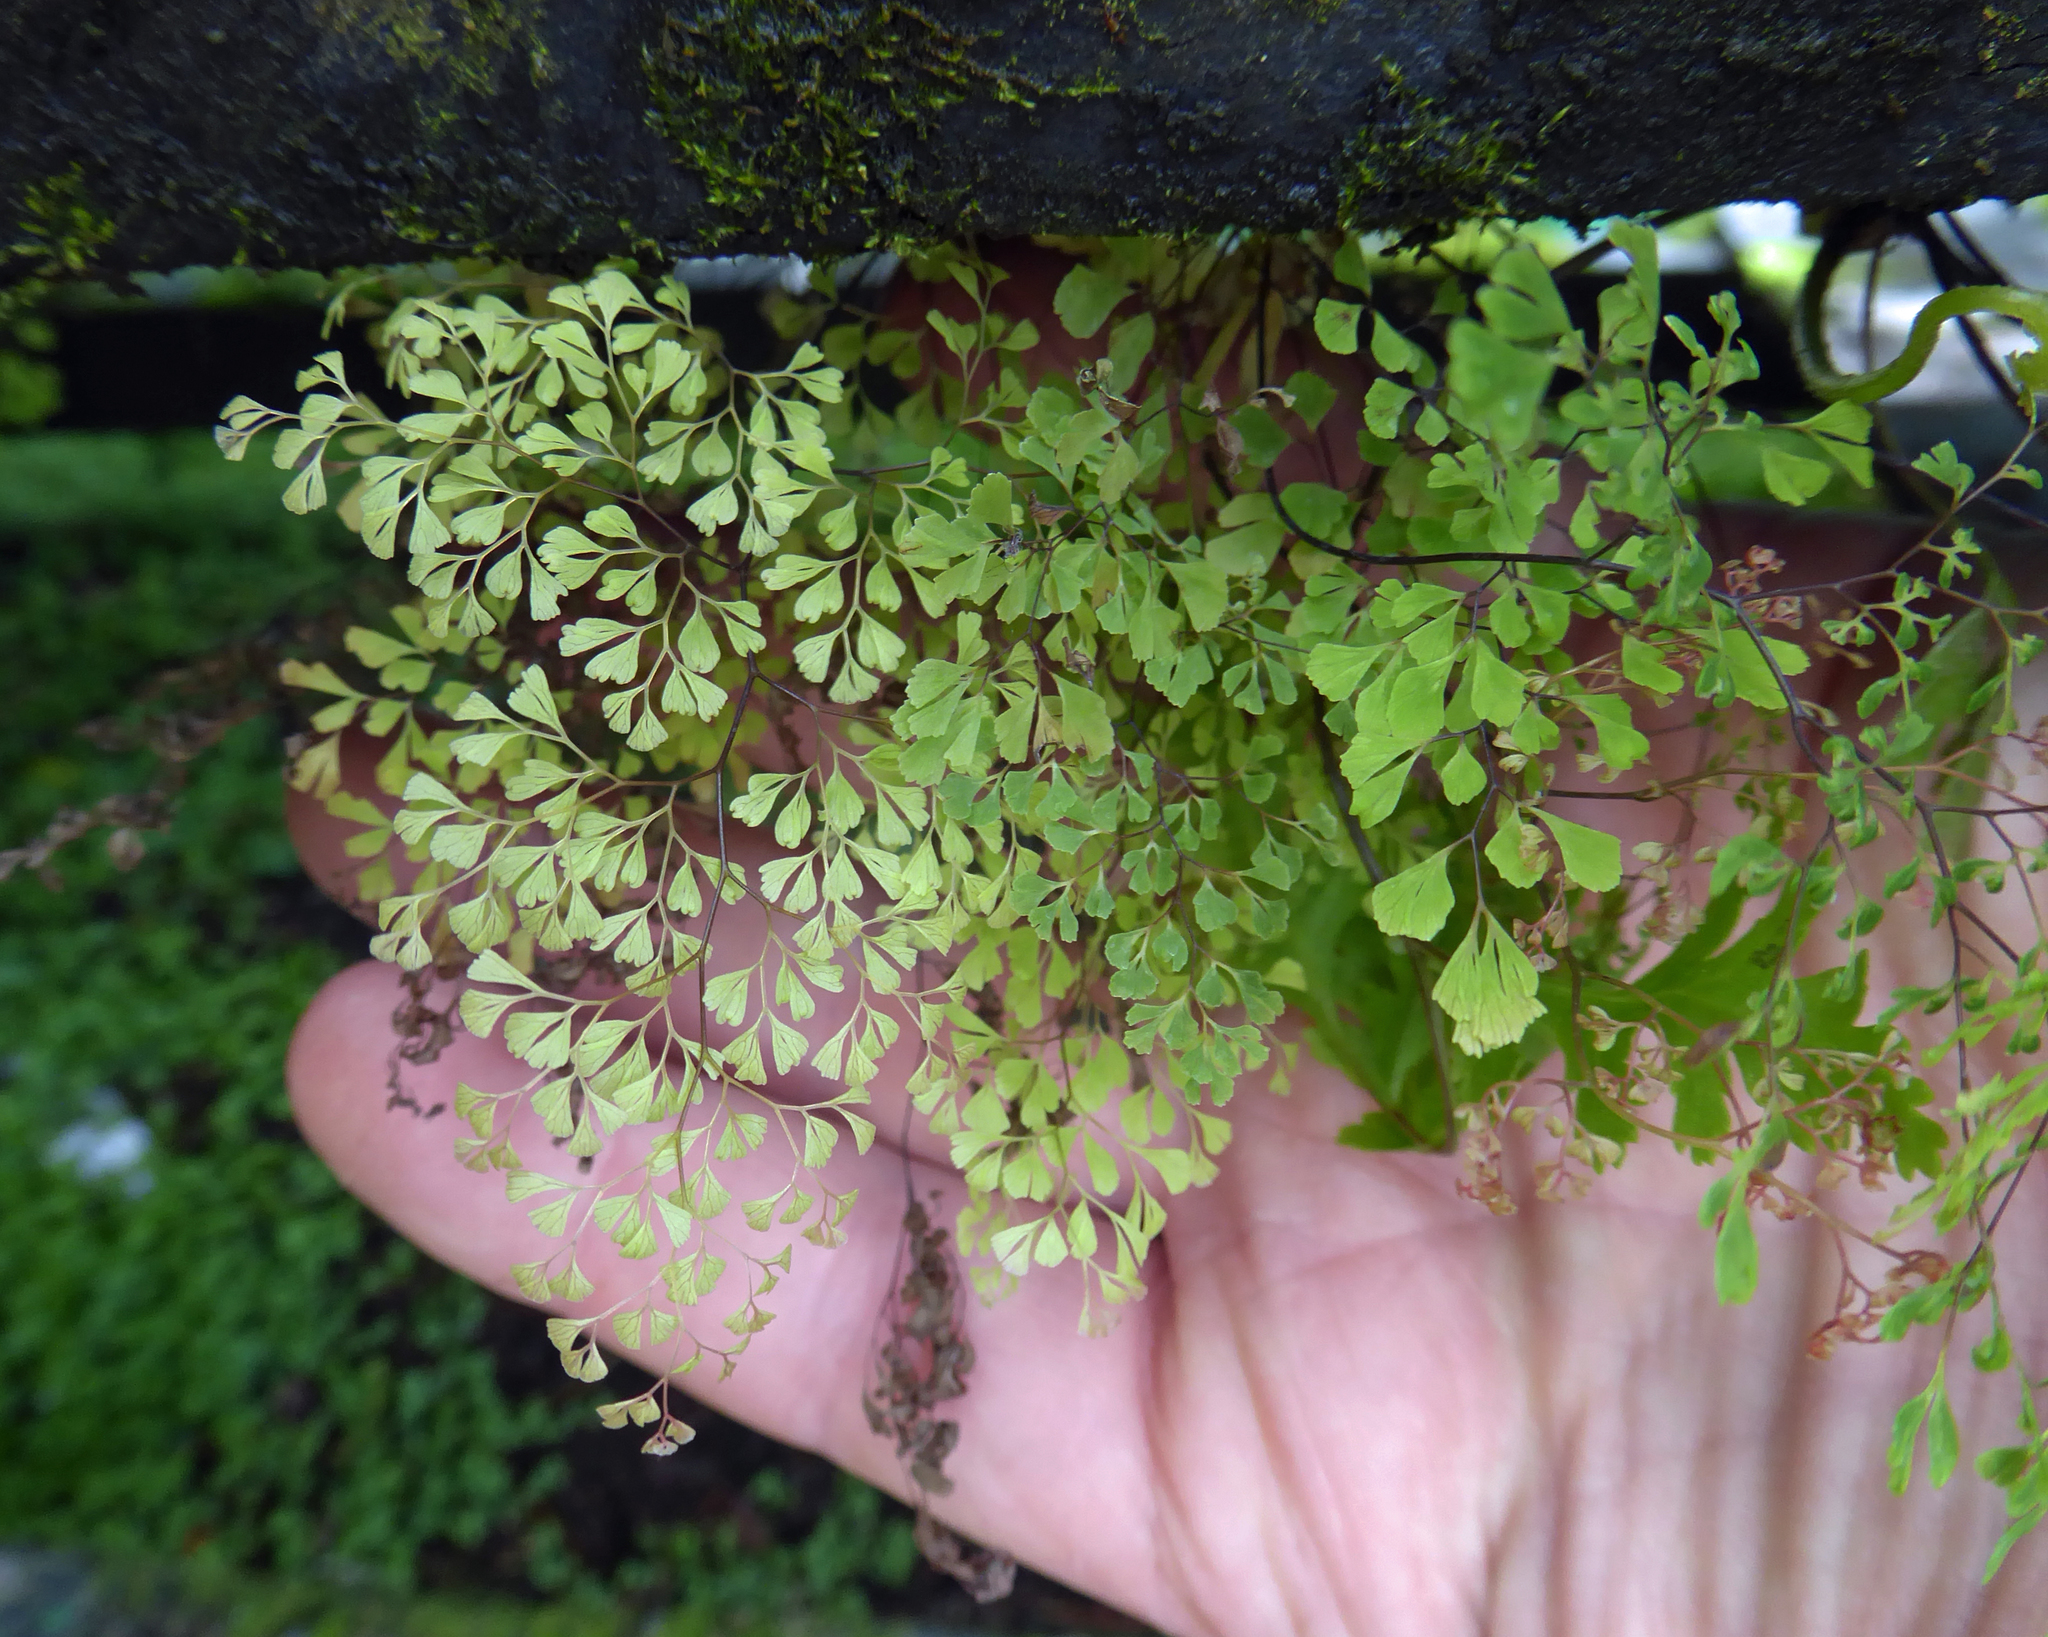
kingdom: Plantae
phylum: Tracheophyta
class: Polypodiopsida
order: Polypodiales
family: Pteridaceae
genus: Adiantum
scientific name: Adiantum raddianum
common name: Delta maidenhair fern
